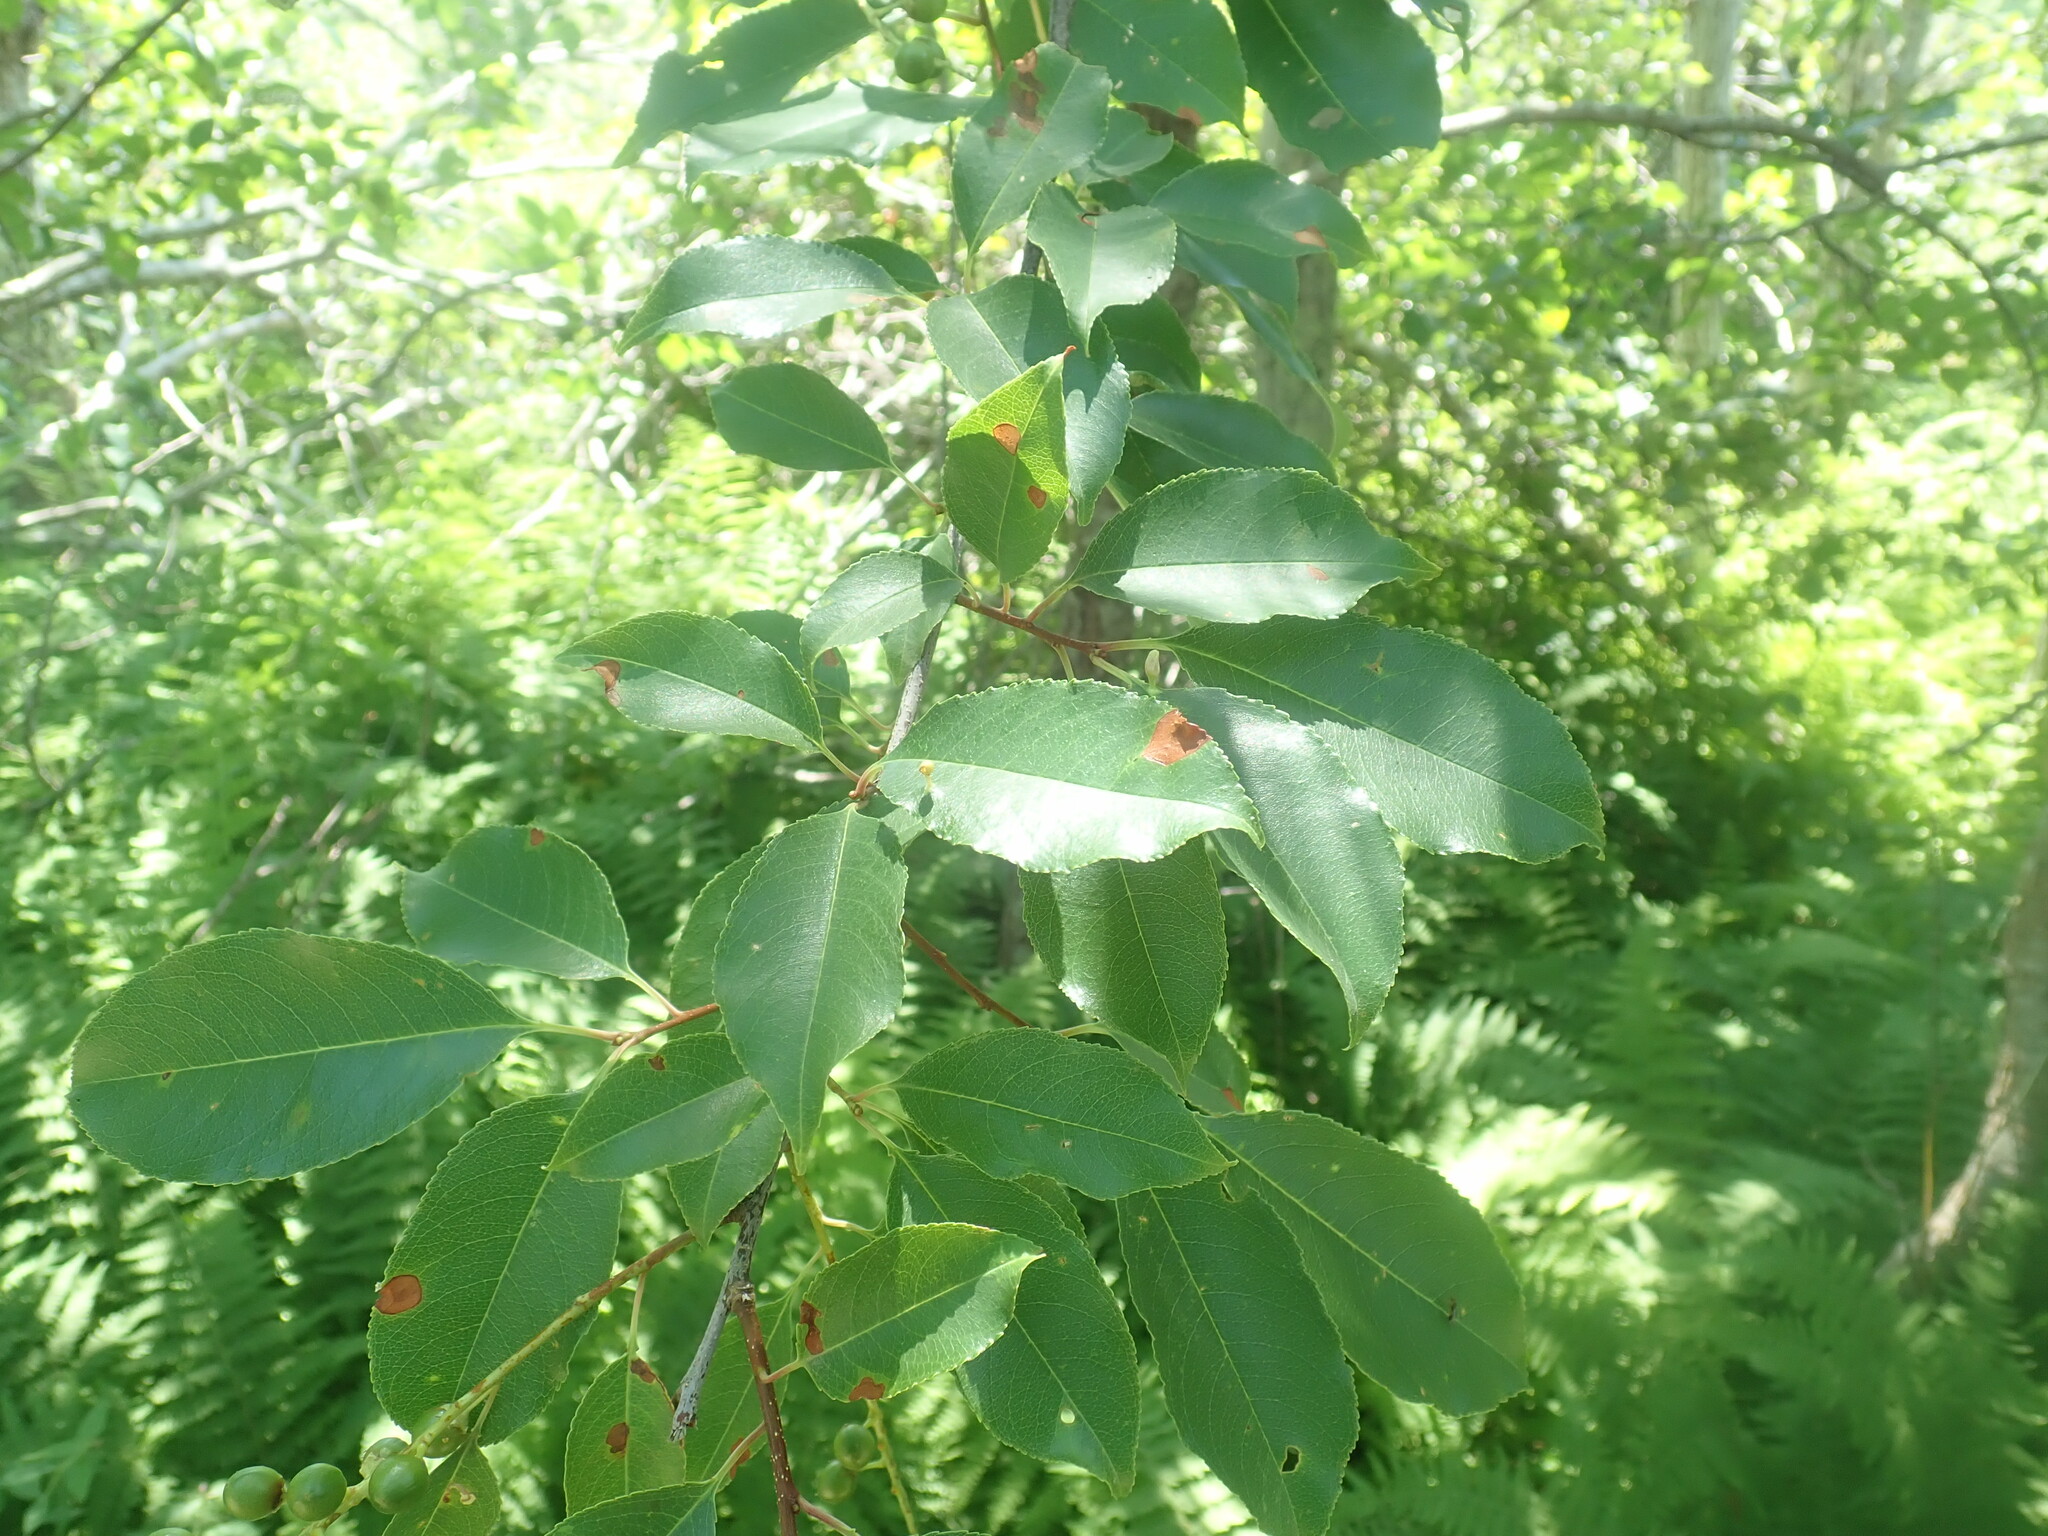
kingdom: Plantae
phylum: Tracheophyta
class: Magnoliopsida
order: Rosales
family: Rosaceae
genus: Prunus
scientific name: Prunus serotina
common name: Black cherry
